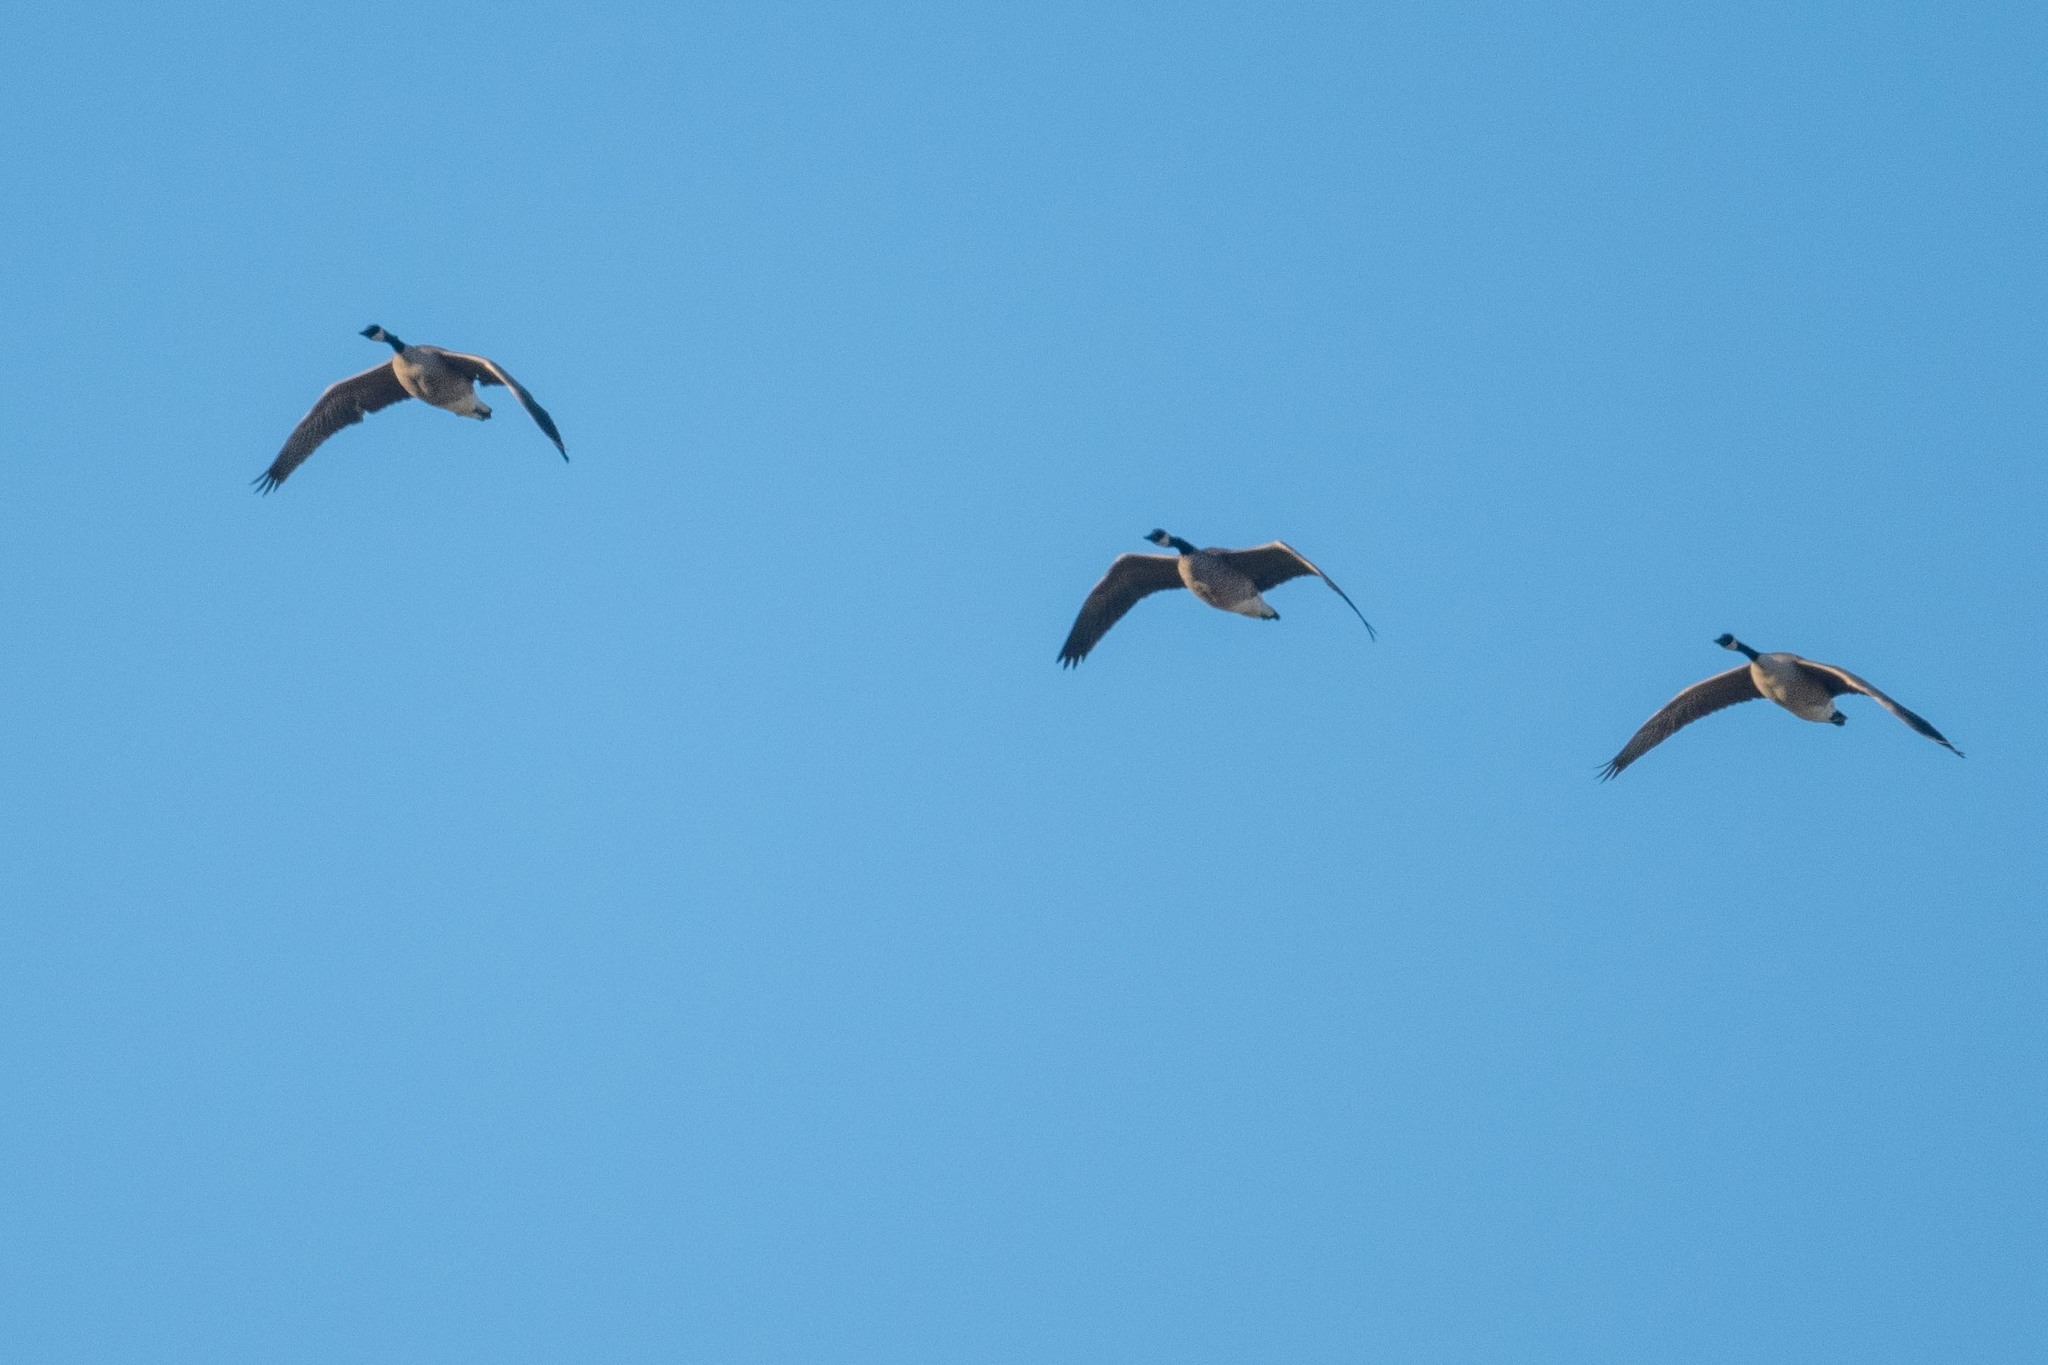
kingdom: Animalia
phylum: Chordata
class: Aves
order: Anseriformes
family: Anatidae
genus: Branta
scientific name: Branta canadensis
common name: Canada goose
